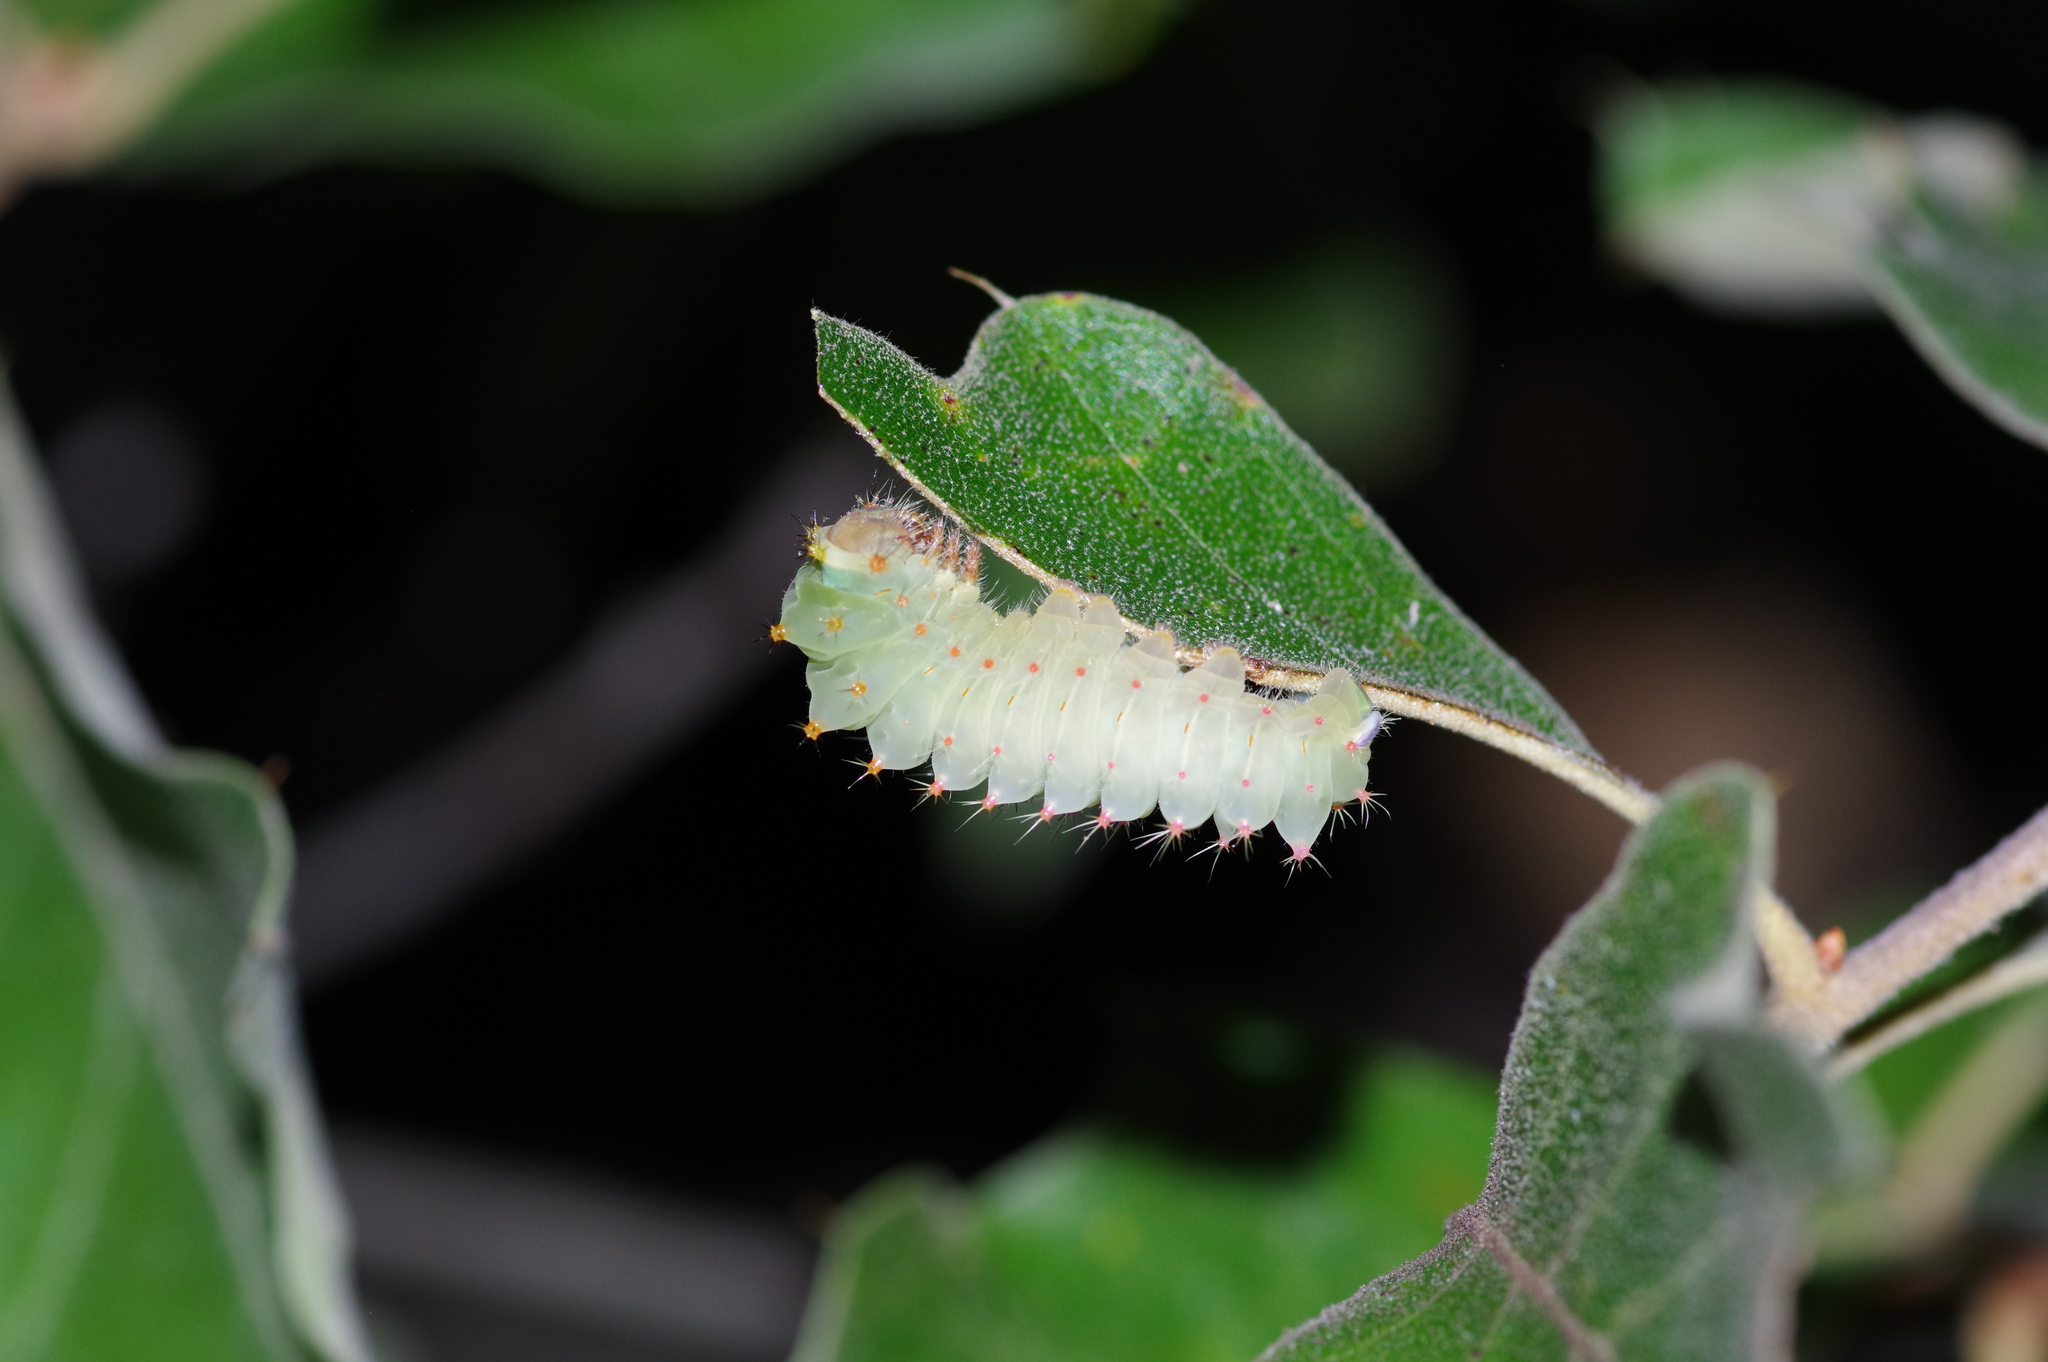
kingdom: Animalia
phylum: Arthropoda
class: Insecta
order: Lepidoptera
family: Saturniidae
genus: Antheraea
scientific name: Antheraea polyphemus
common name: Polyphemus moth
